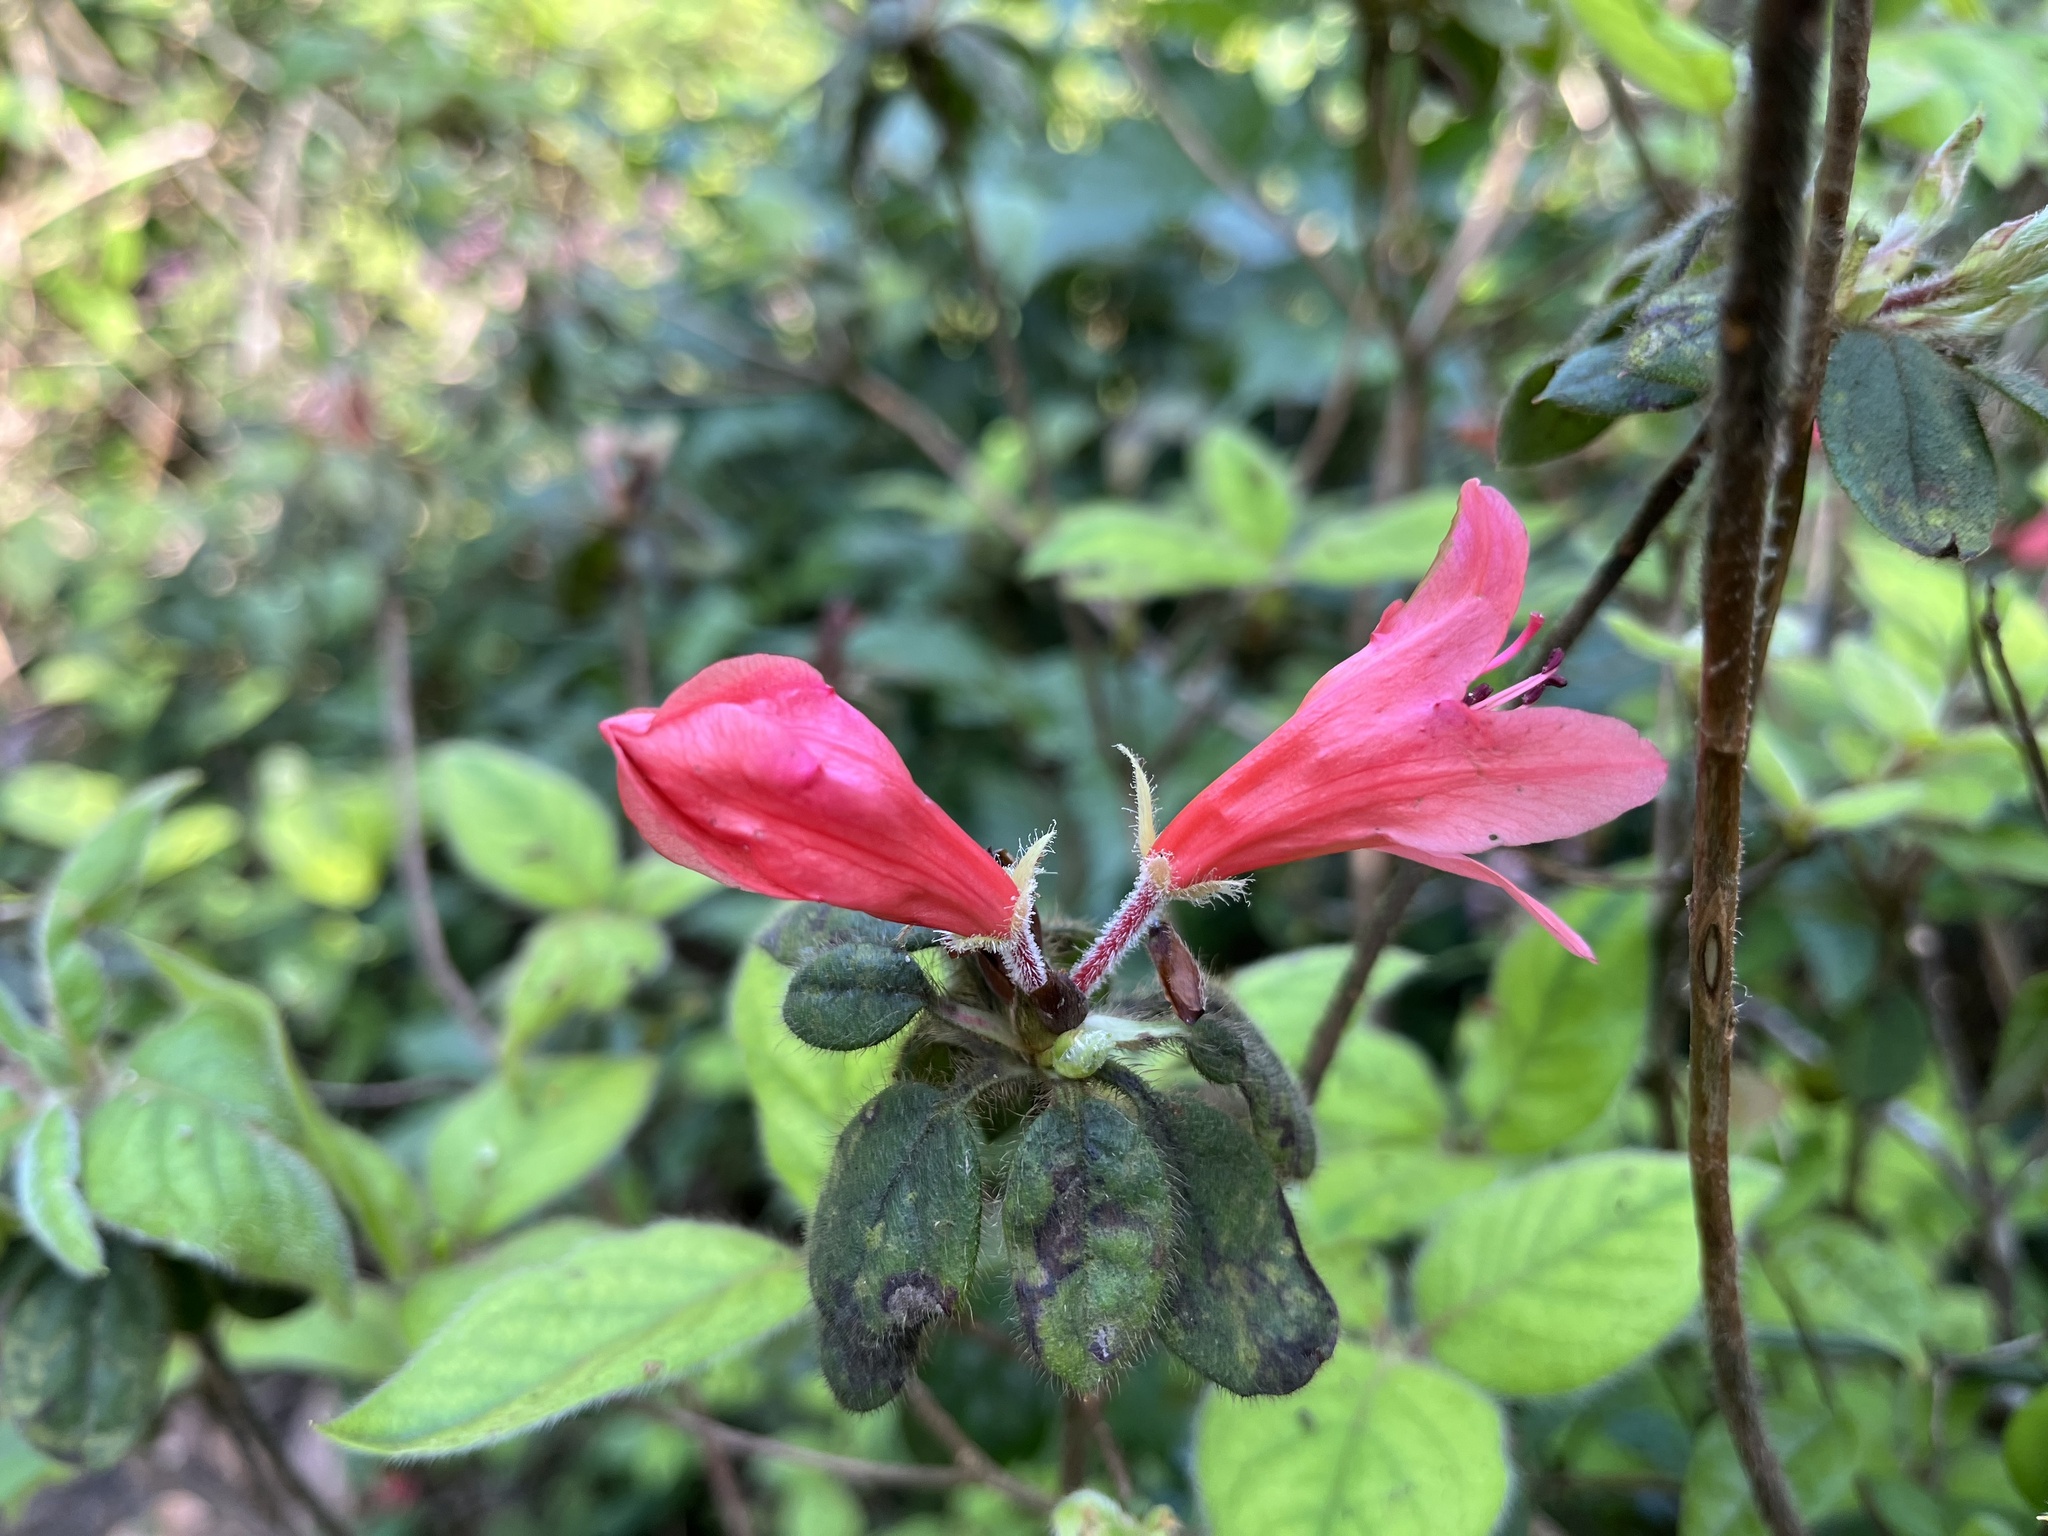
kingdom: Plantae
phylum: Tracheophyta
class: Magnoliopsida
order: Ericales
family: Ericaceae
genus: Rhododendron
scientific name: Rhododendron oldhamii
